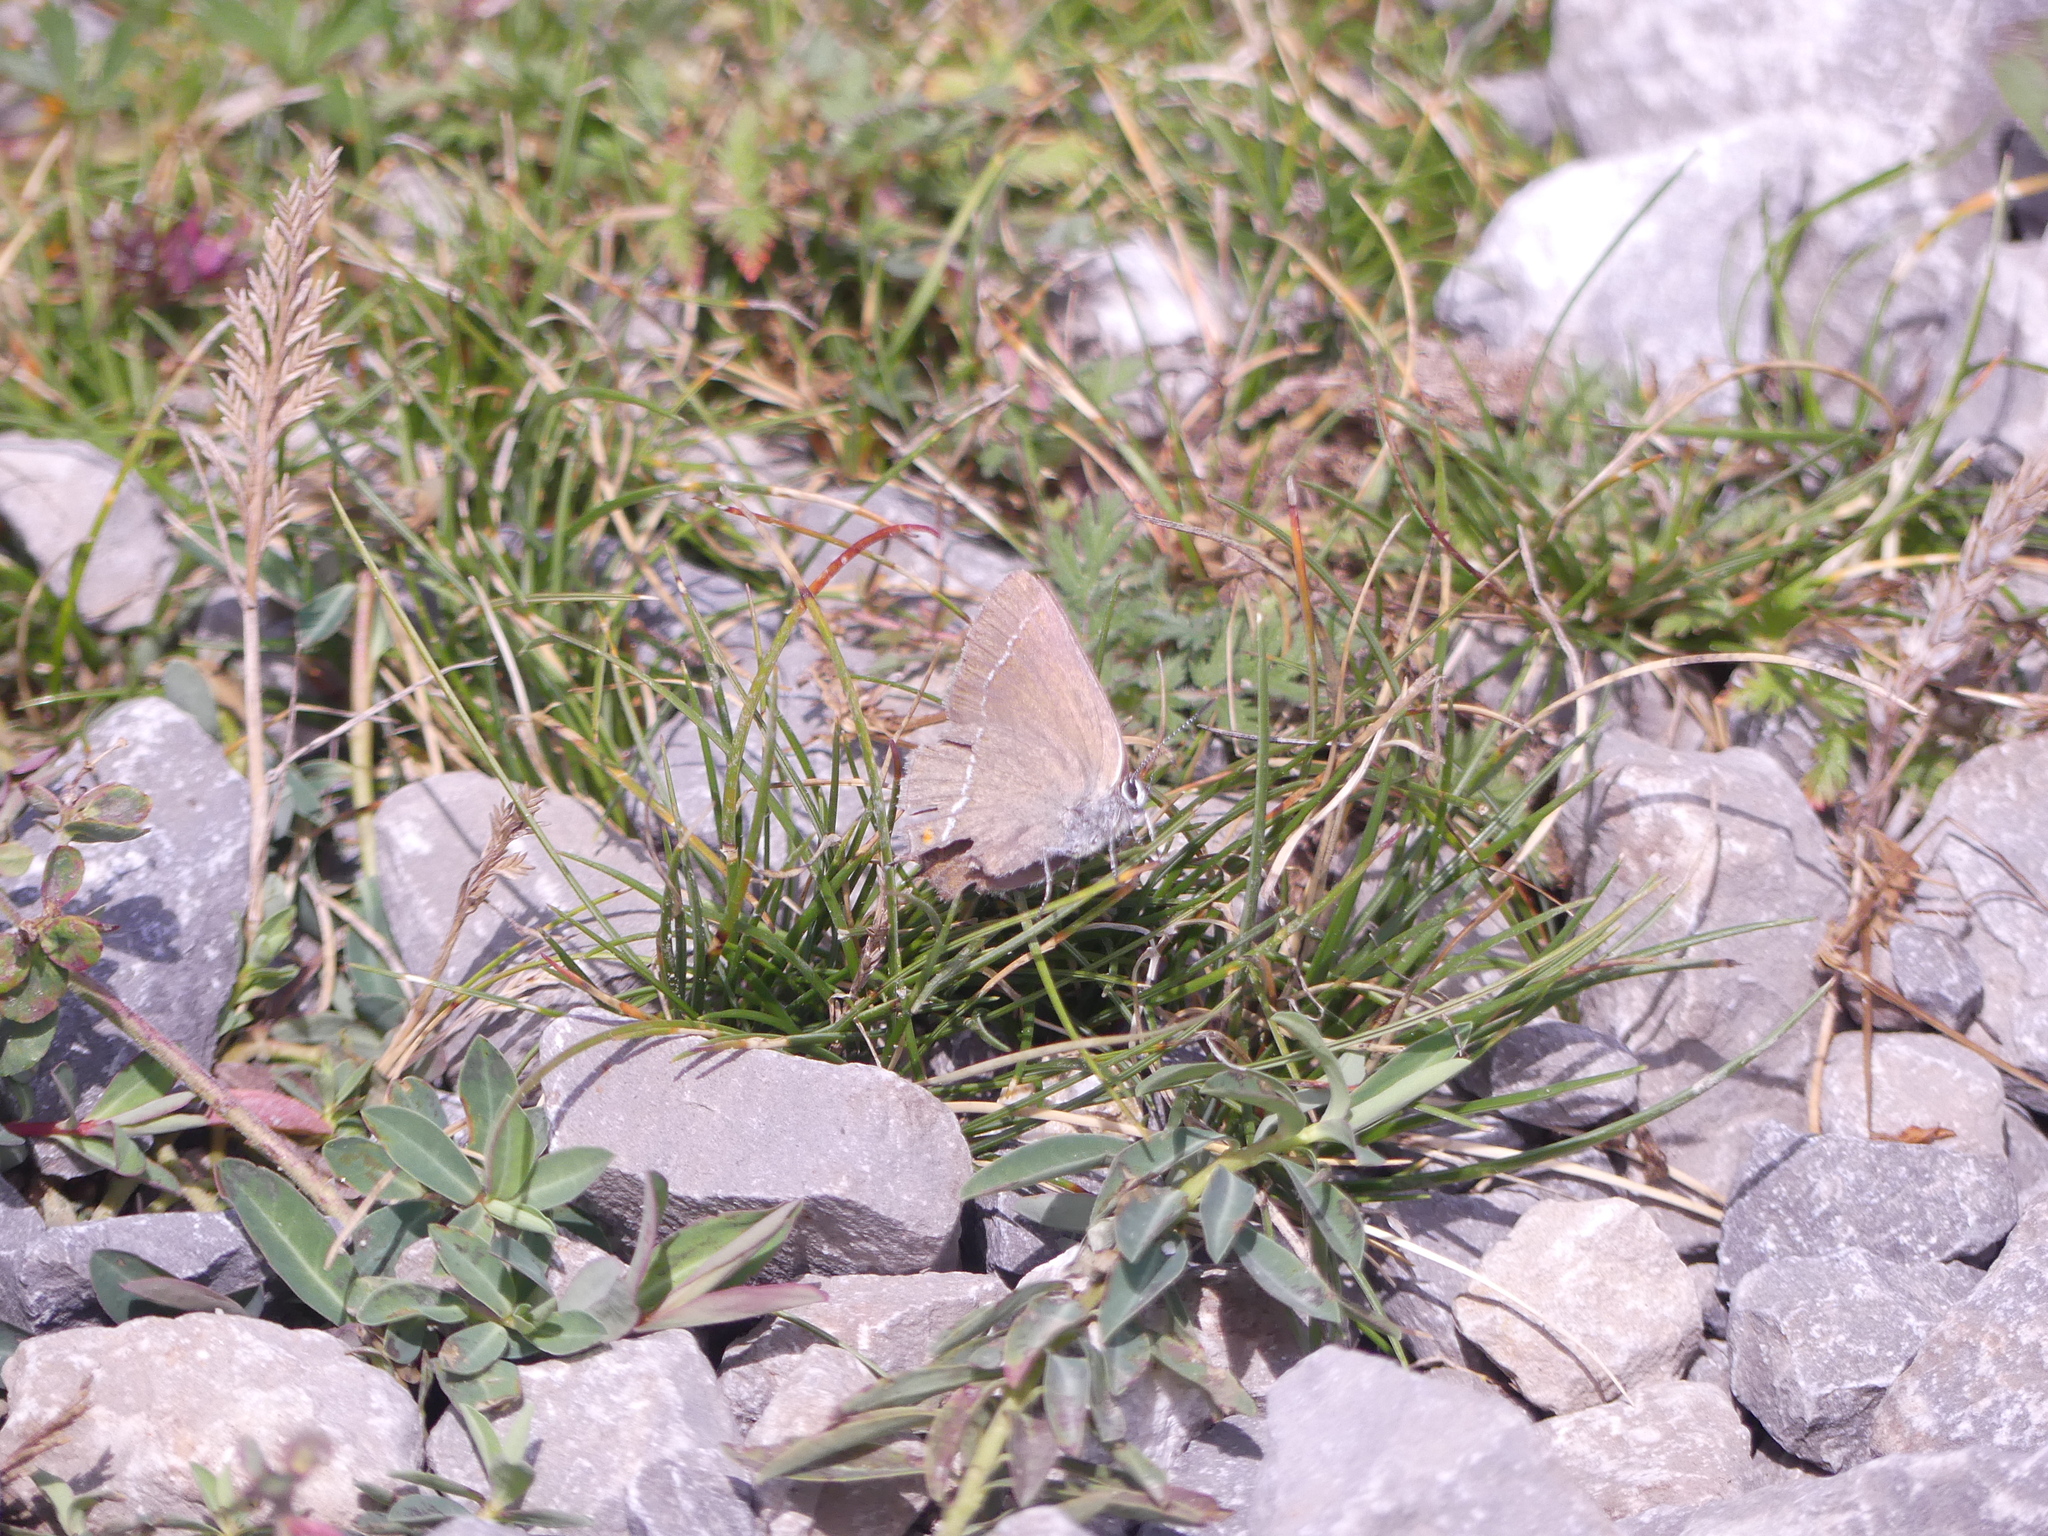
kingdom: Animalia
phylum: Arthropoda
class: Insecta
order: Lepidoptera
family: Lycaenidae
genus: Tuttiola
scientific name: Tuttiola spini
